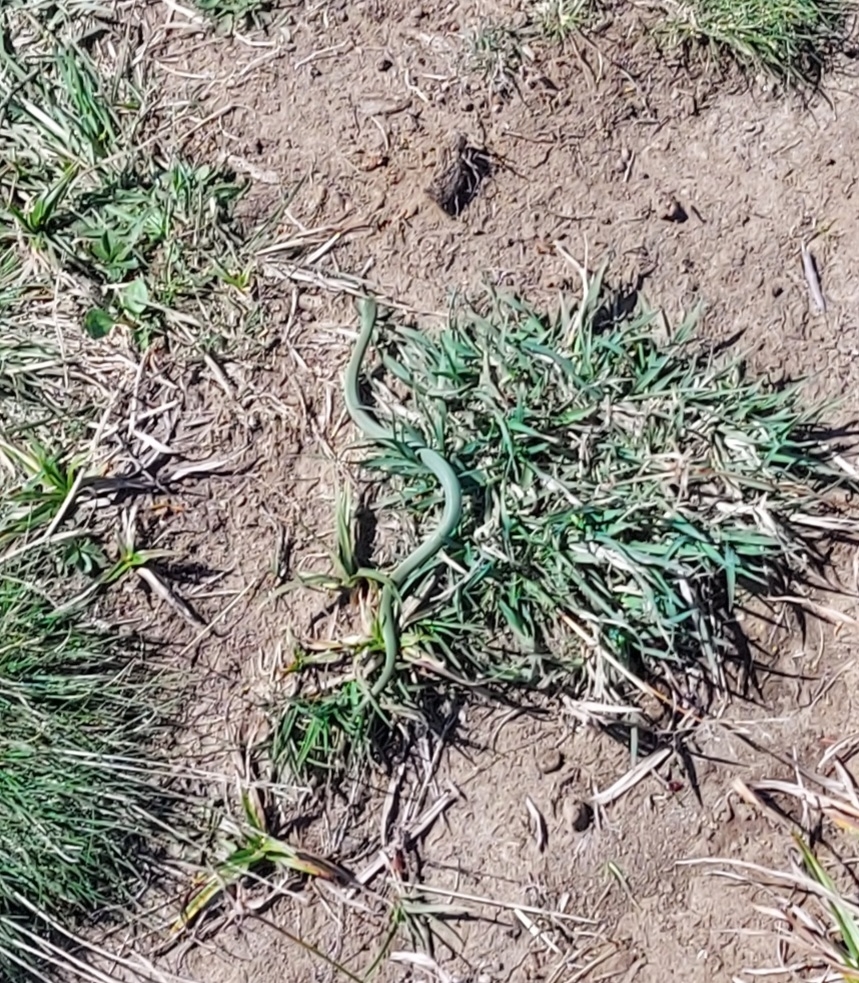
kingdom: Animalia
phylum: Chordata
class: Squamata
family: Colubridae
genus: Opheodrys
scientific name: Opheodrys vernalis
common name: Smooth green snake
